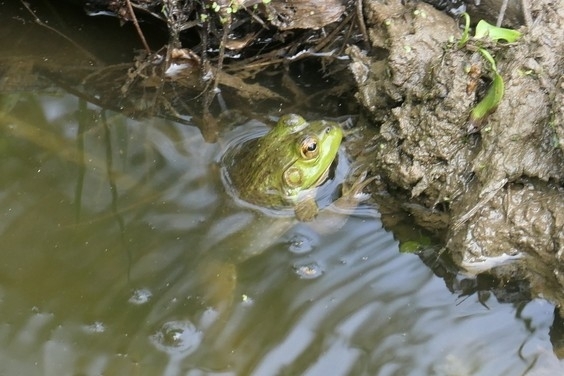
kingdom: Animalia
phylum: Chordata
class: Amphibia
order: Anura
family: Ranidae
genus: Lithobates
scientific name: Lithobates catesbeianus
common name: American bullfrog
